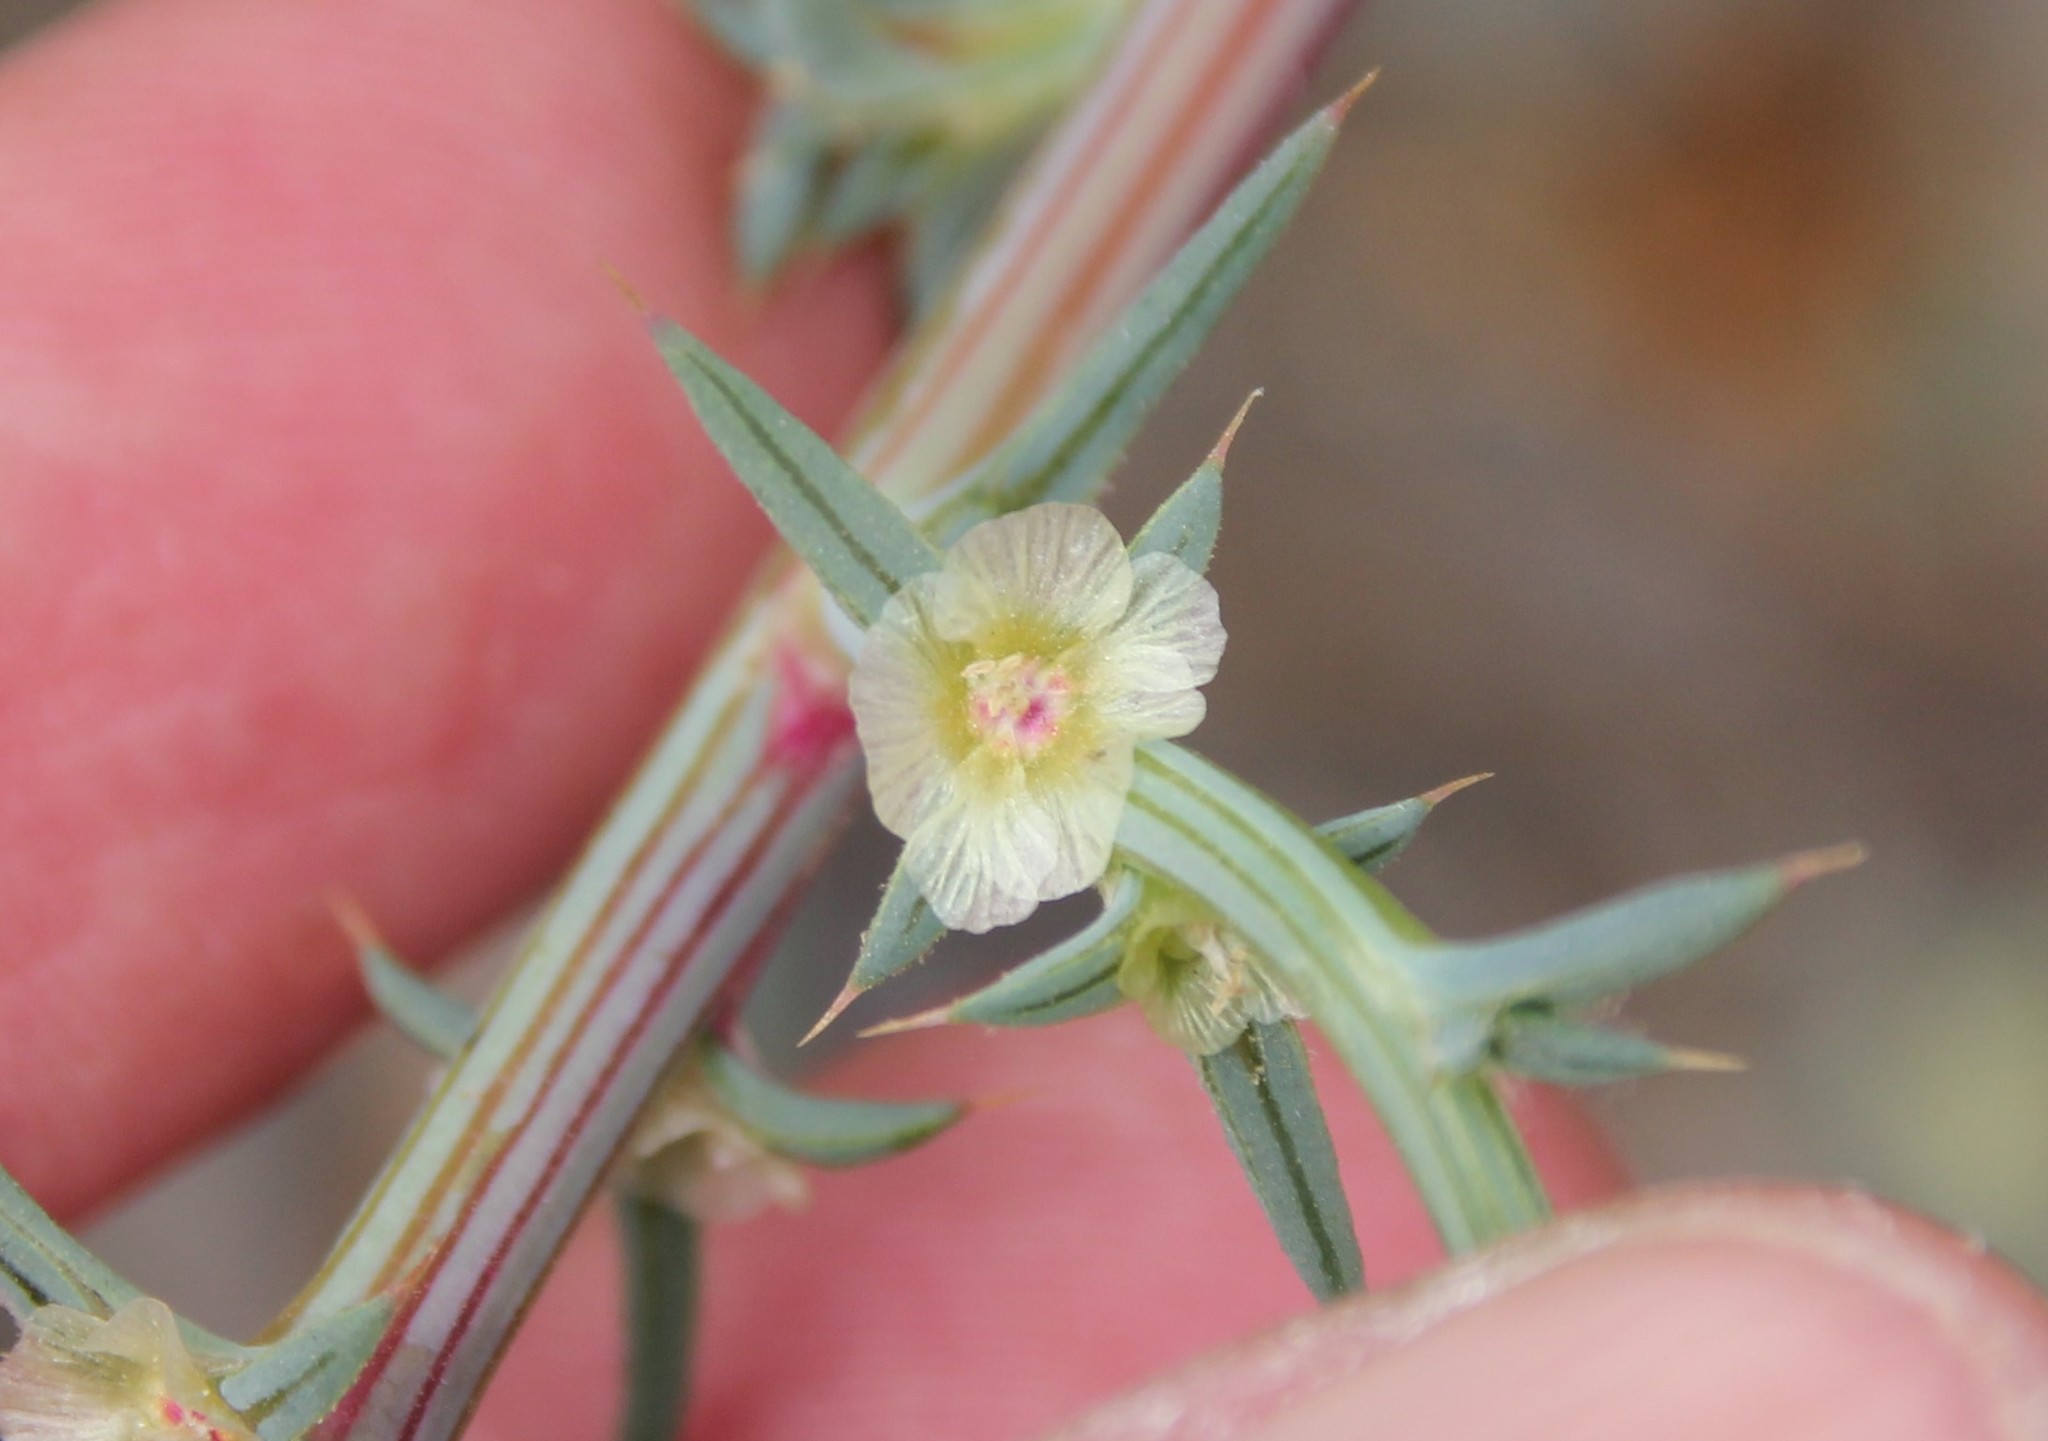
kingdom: Plantae
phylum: Tracheophyta
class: Magnoliopsida
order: Caryophyllales
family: Amaranthaceae
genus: Salsola
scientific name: Salsola australis
